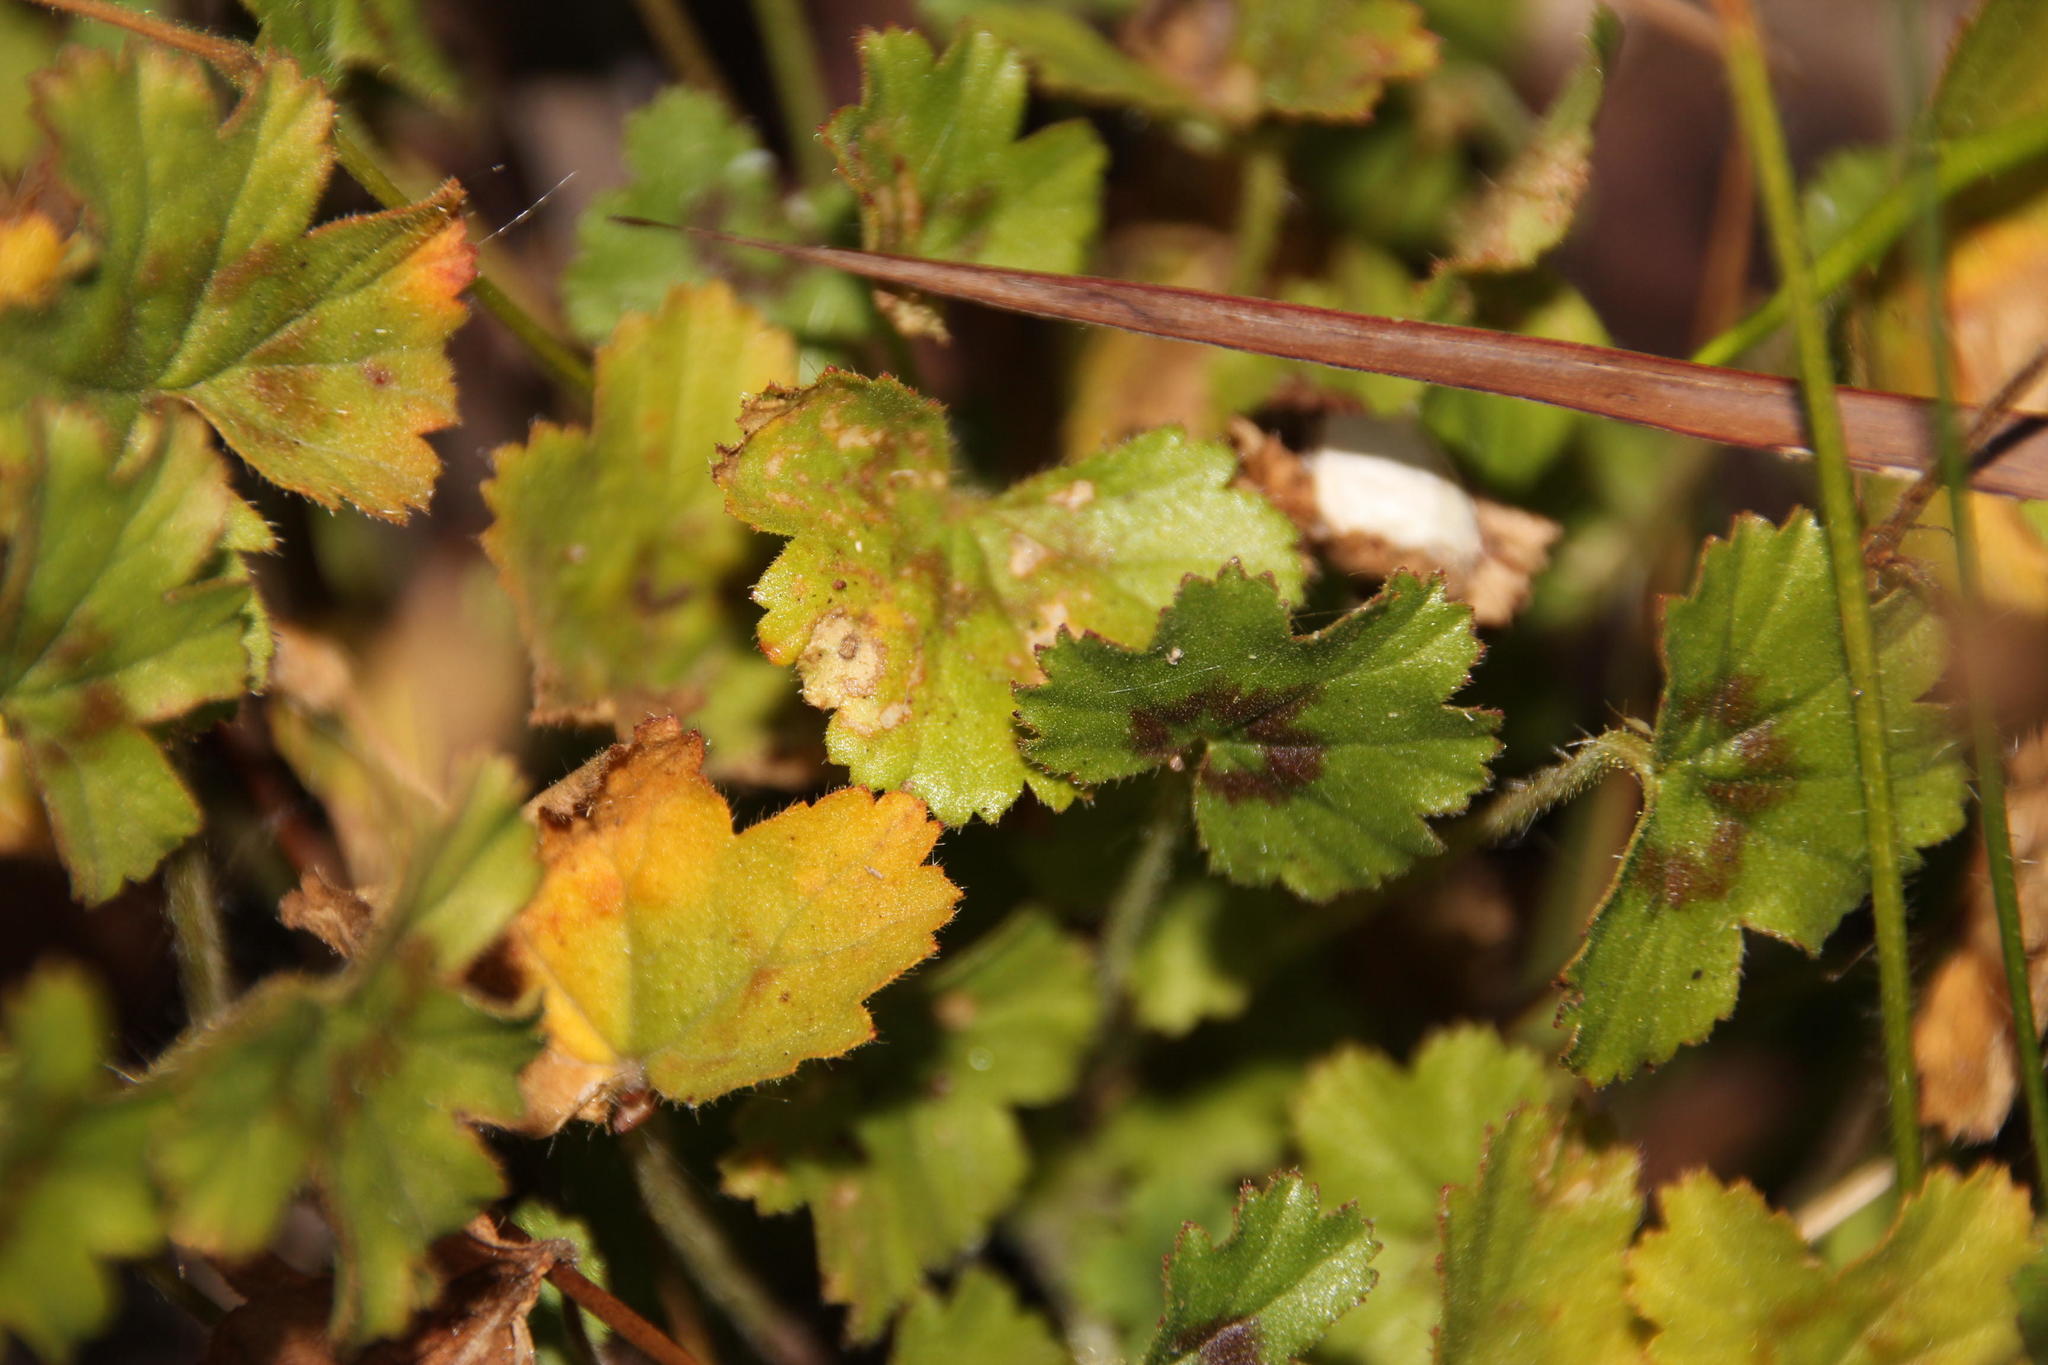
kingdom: Plantae
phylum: Tracheophyta
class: Magnoliopsida
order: Geraniales
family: Geraniaceae
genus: Pelargonium
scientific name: Pelargonium elongatum
